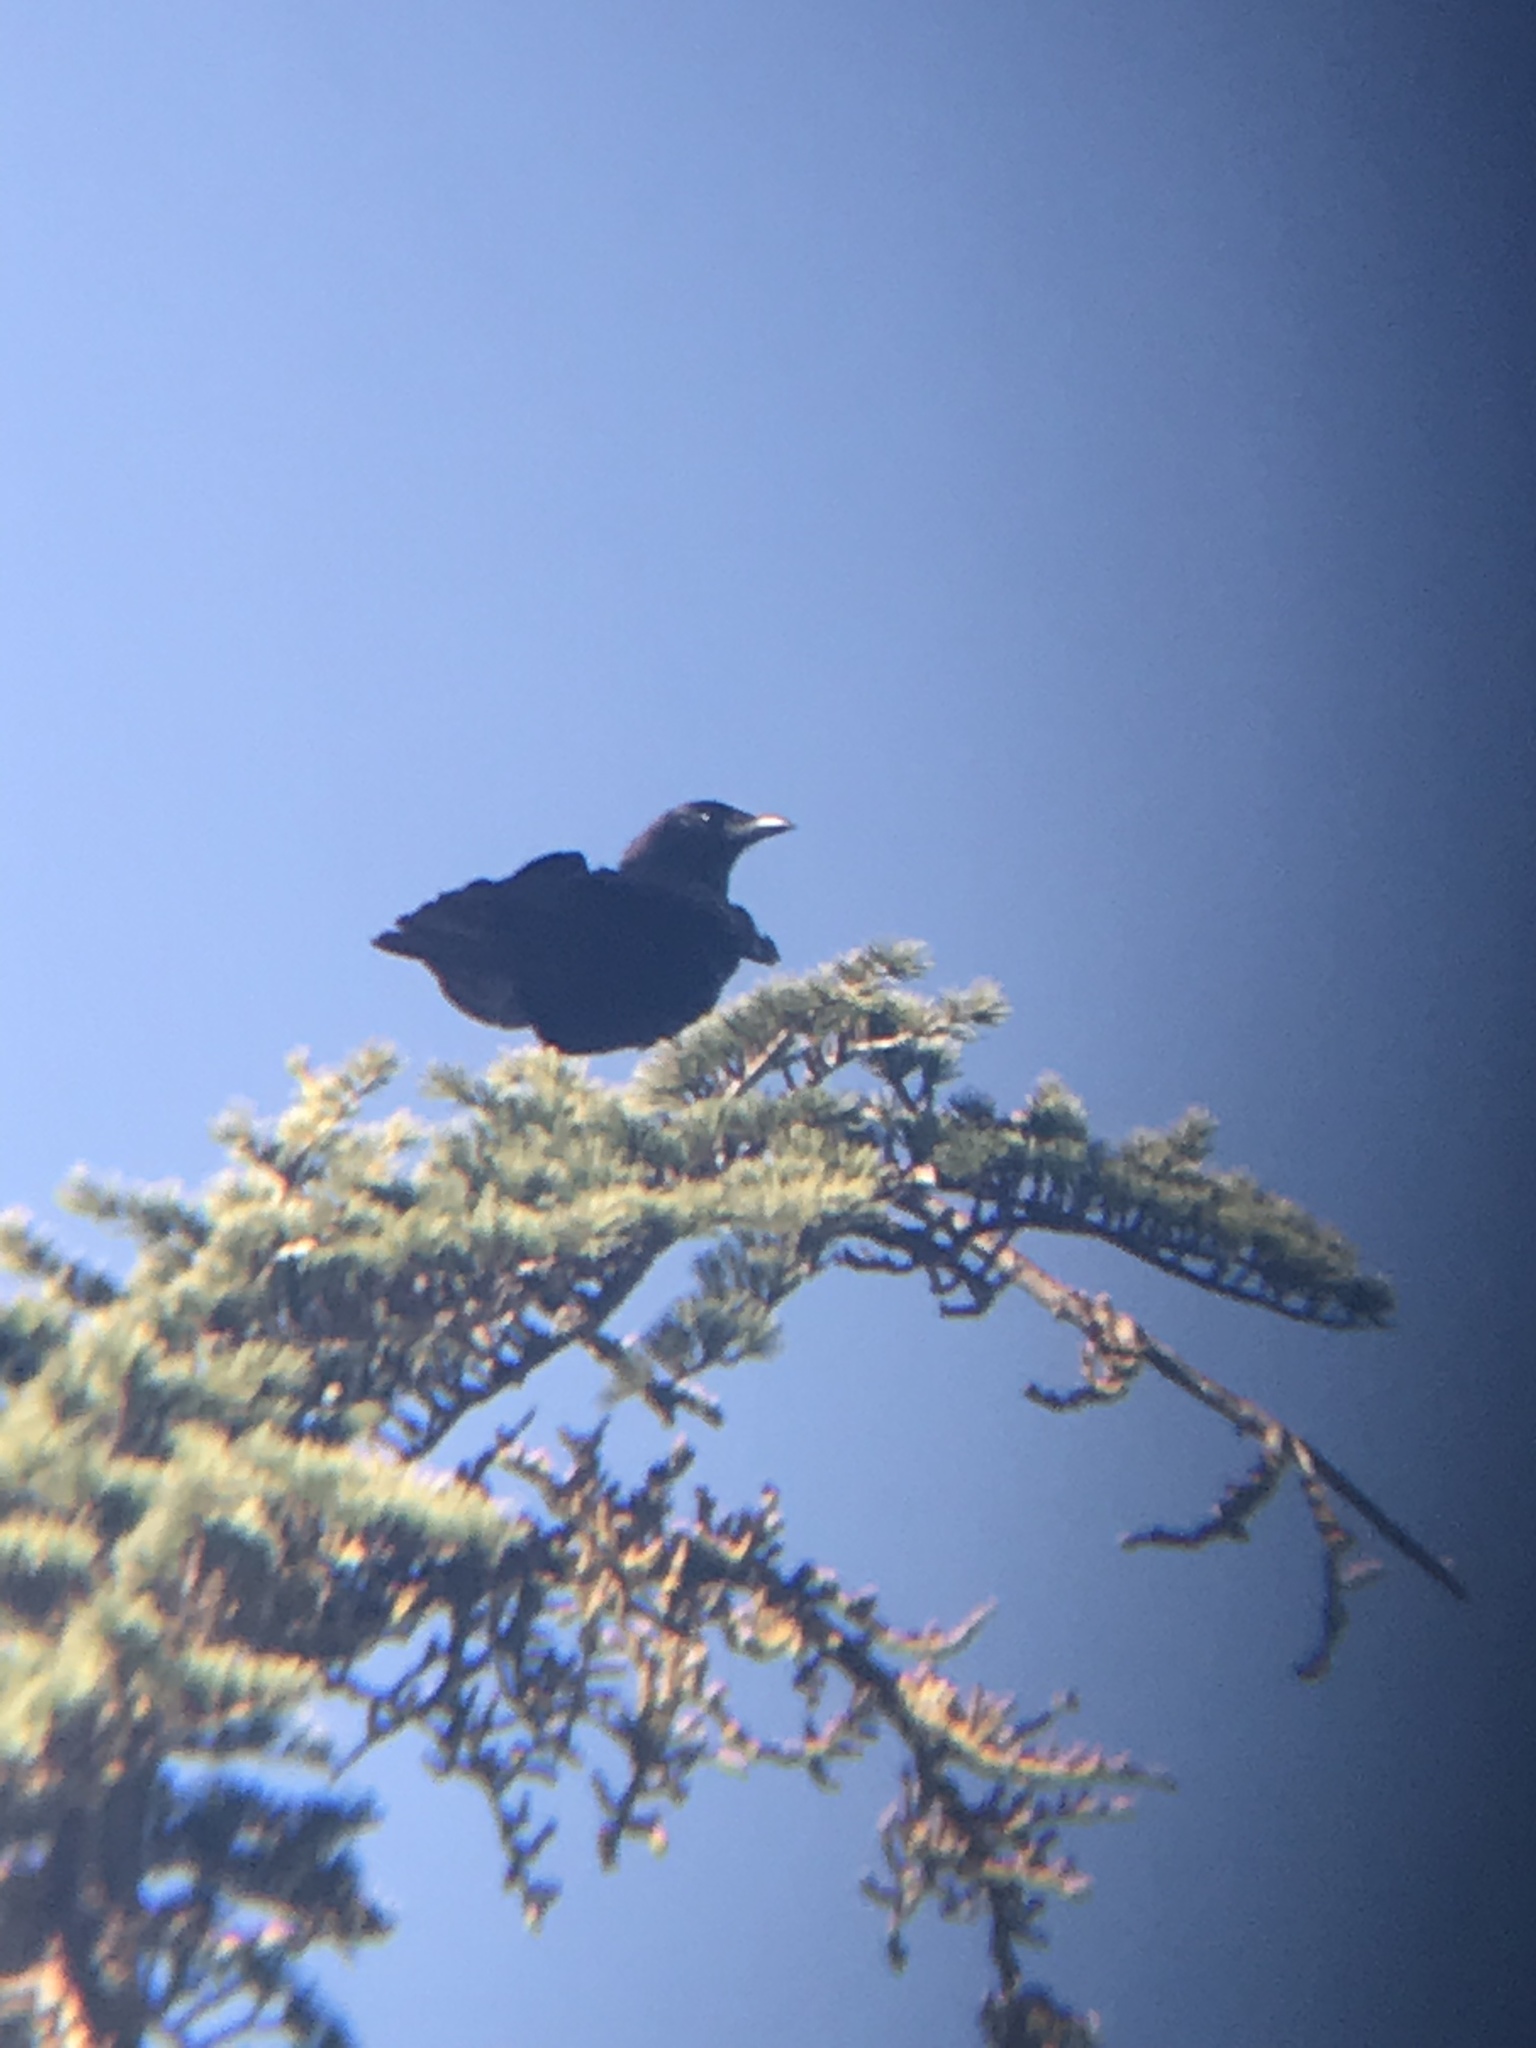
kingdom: Animalia
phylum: Chordata
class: Aves
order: Passeriformes
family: Corvidae
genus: Corvus
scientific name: Corvus brachyrhynchos
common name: American crow
